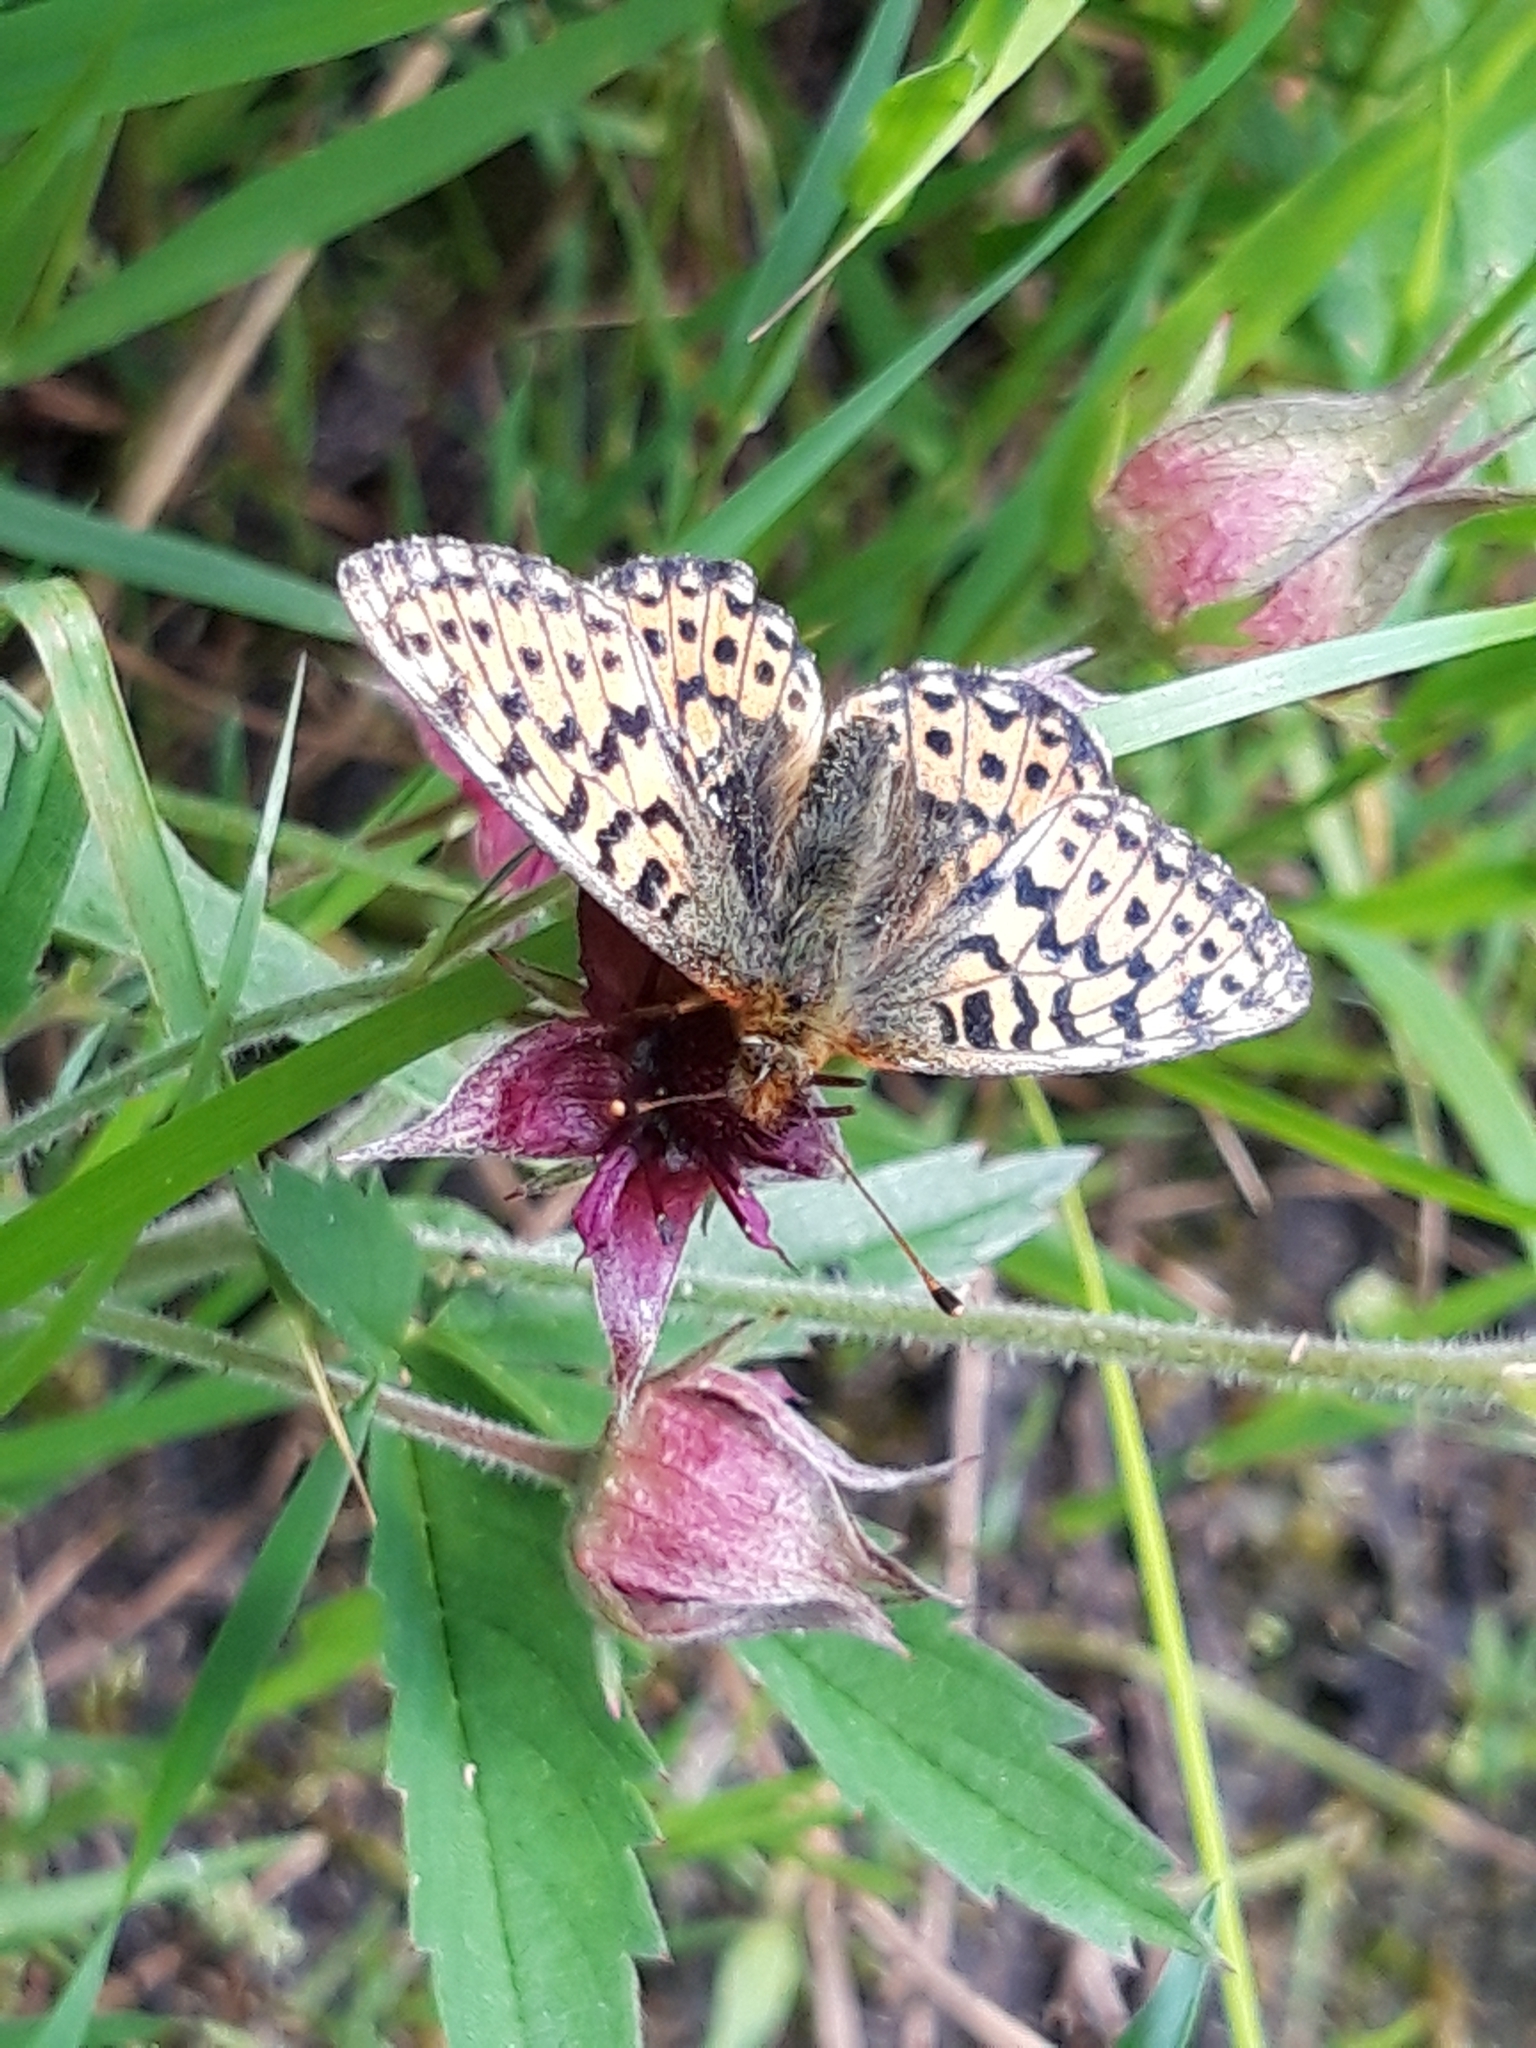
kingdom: Animalia
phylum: Arthropoda
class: Insecta
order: Lepidoptera
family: Nymphalidae
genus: Boloria
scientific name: Boloria aquilonaris
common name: Cranberry fritillary
